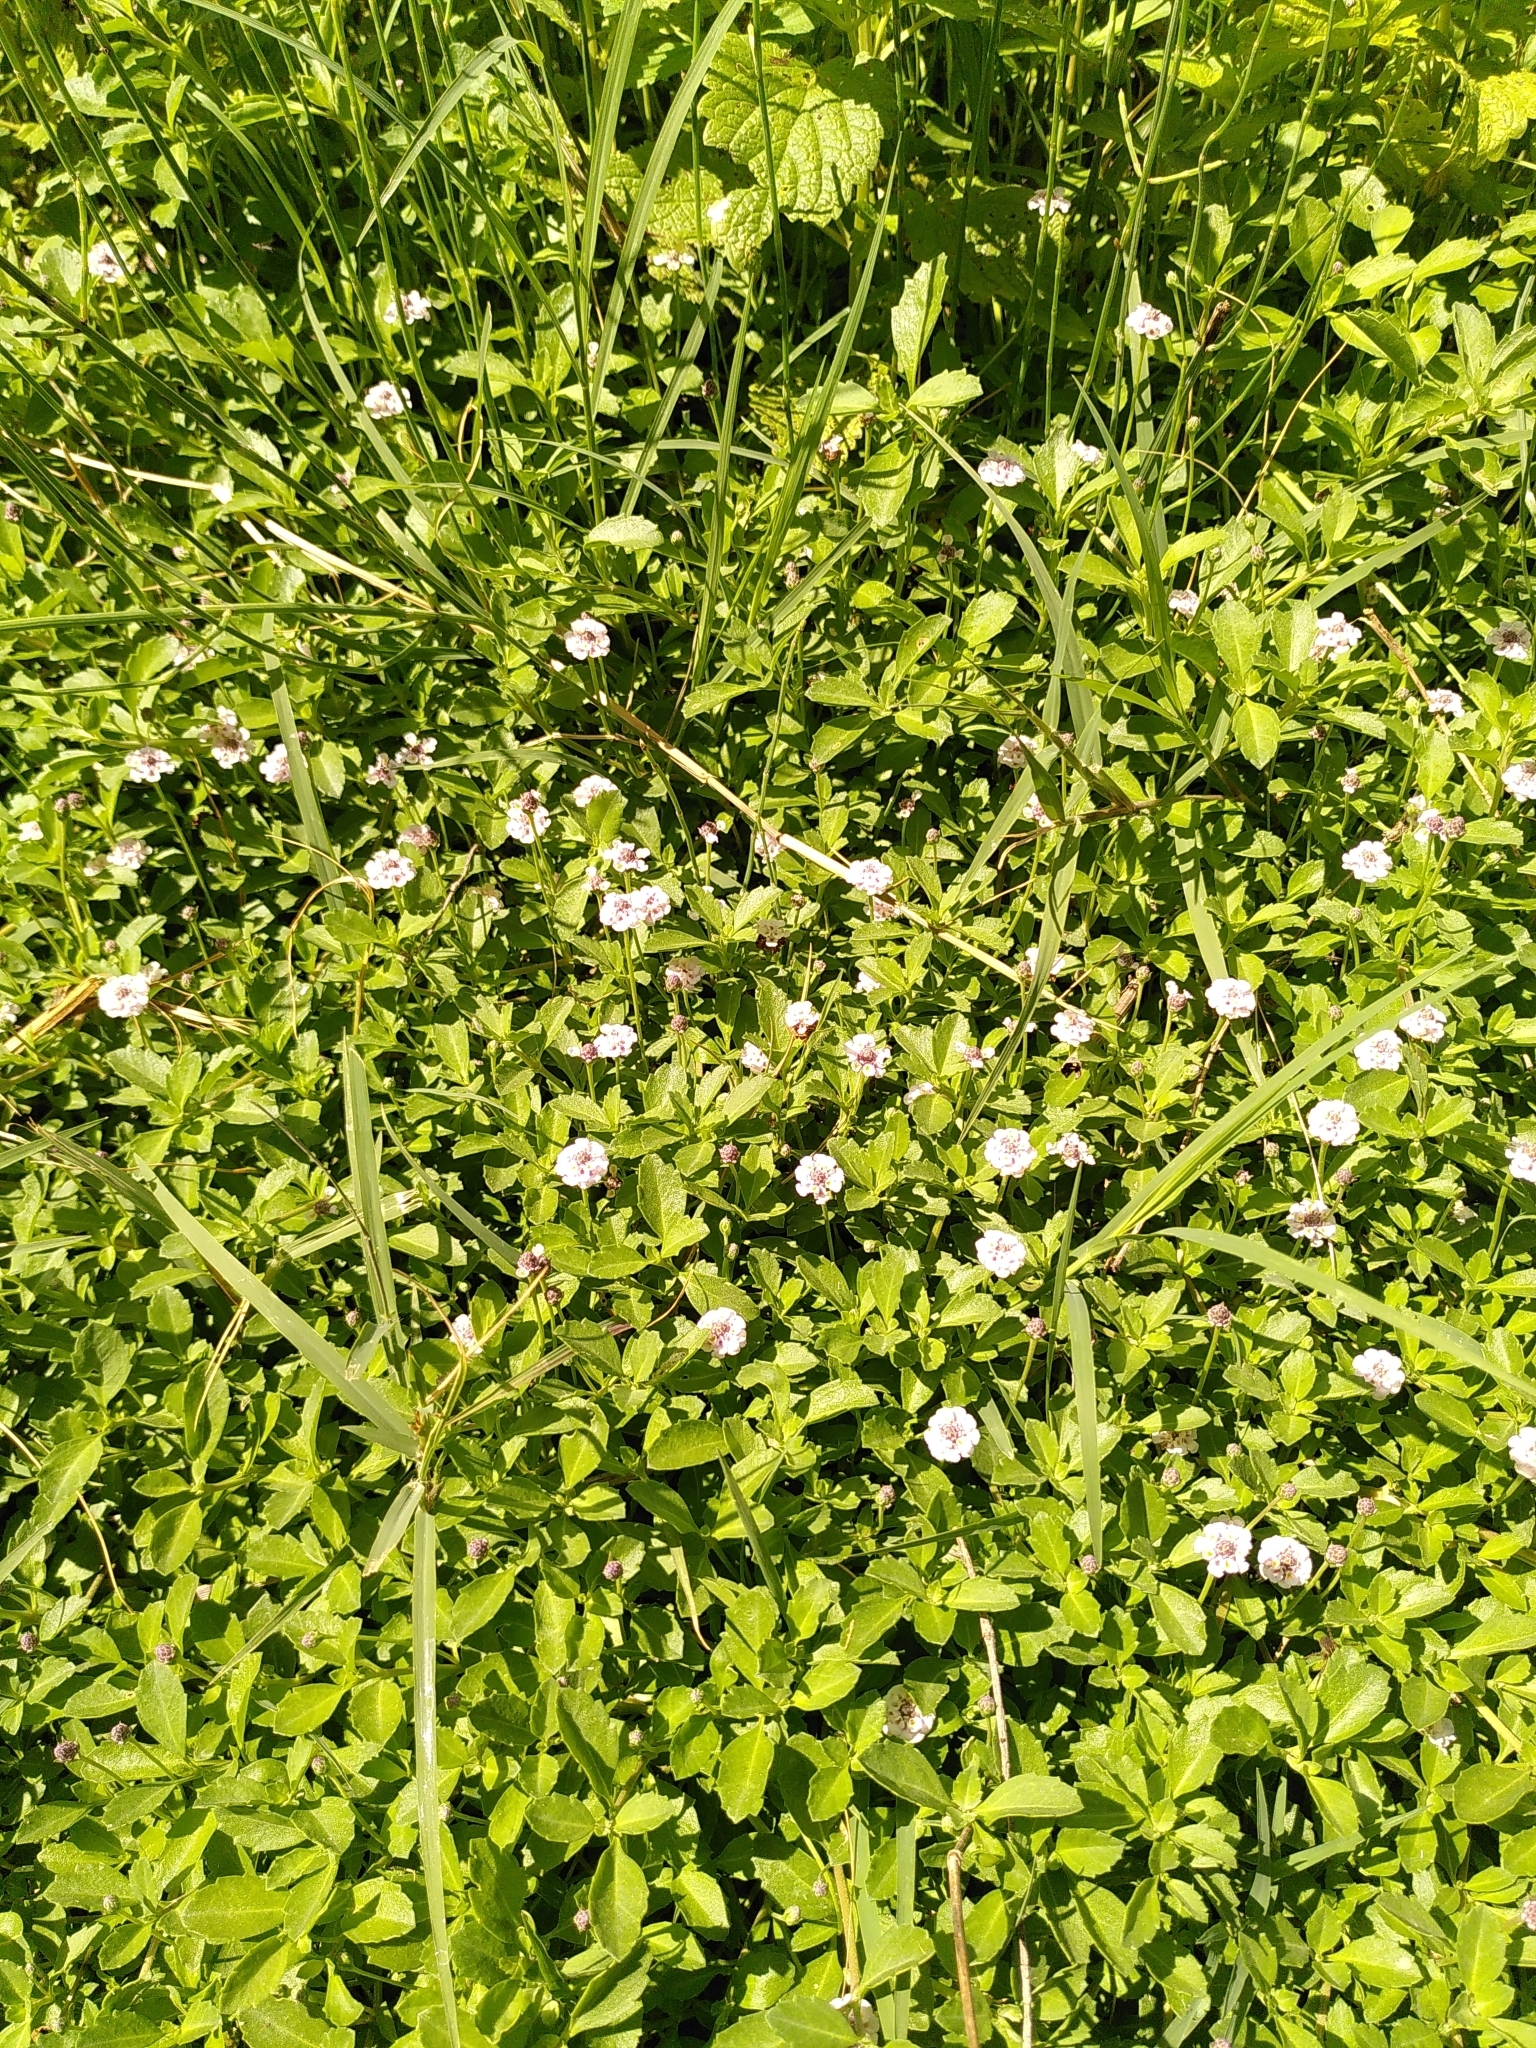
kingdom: Plantae
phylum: Tracheophyta
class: Magnoliopsida
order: Lamiales
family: Verbenaceae
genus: Phyla
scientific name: Phyla nodiflora
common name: Frogfruit
